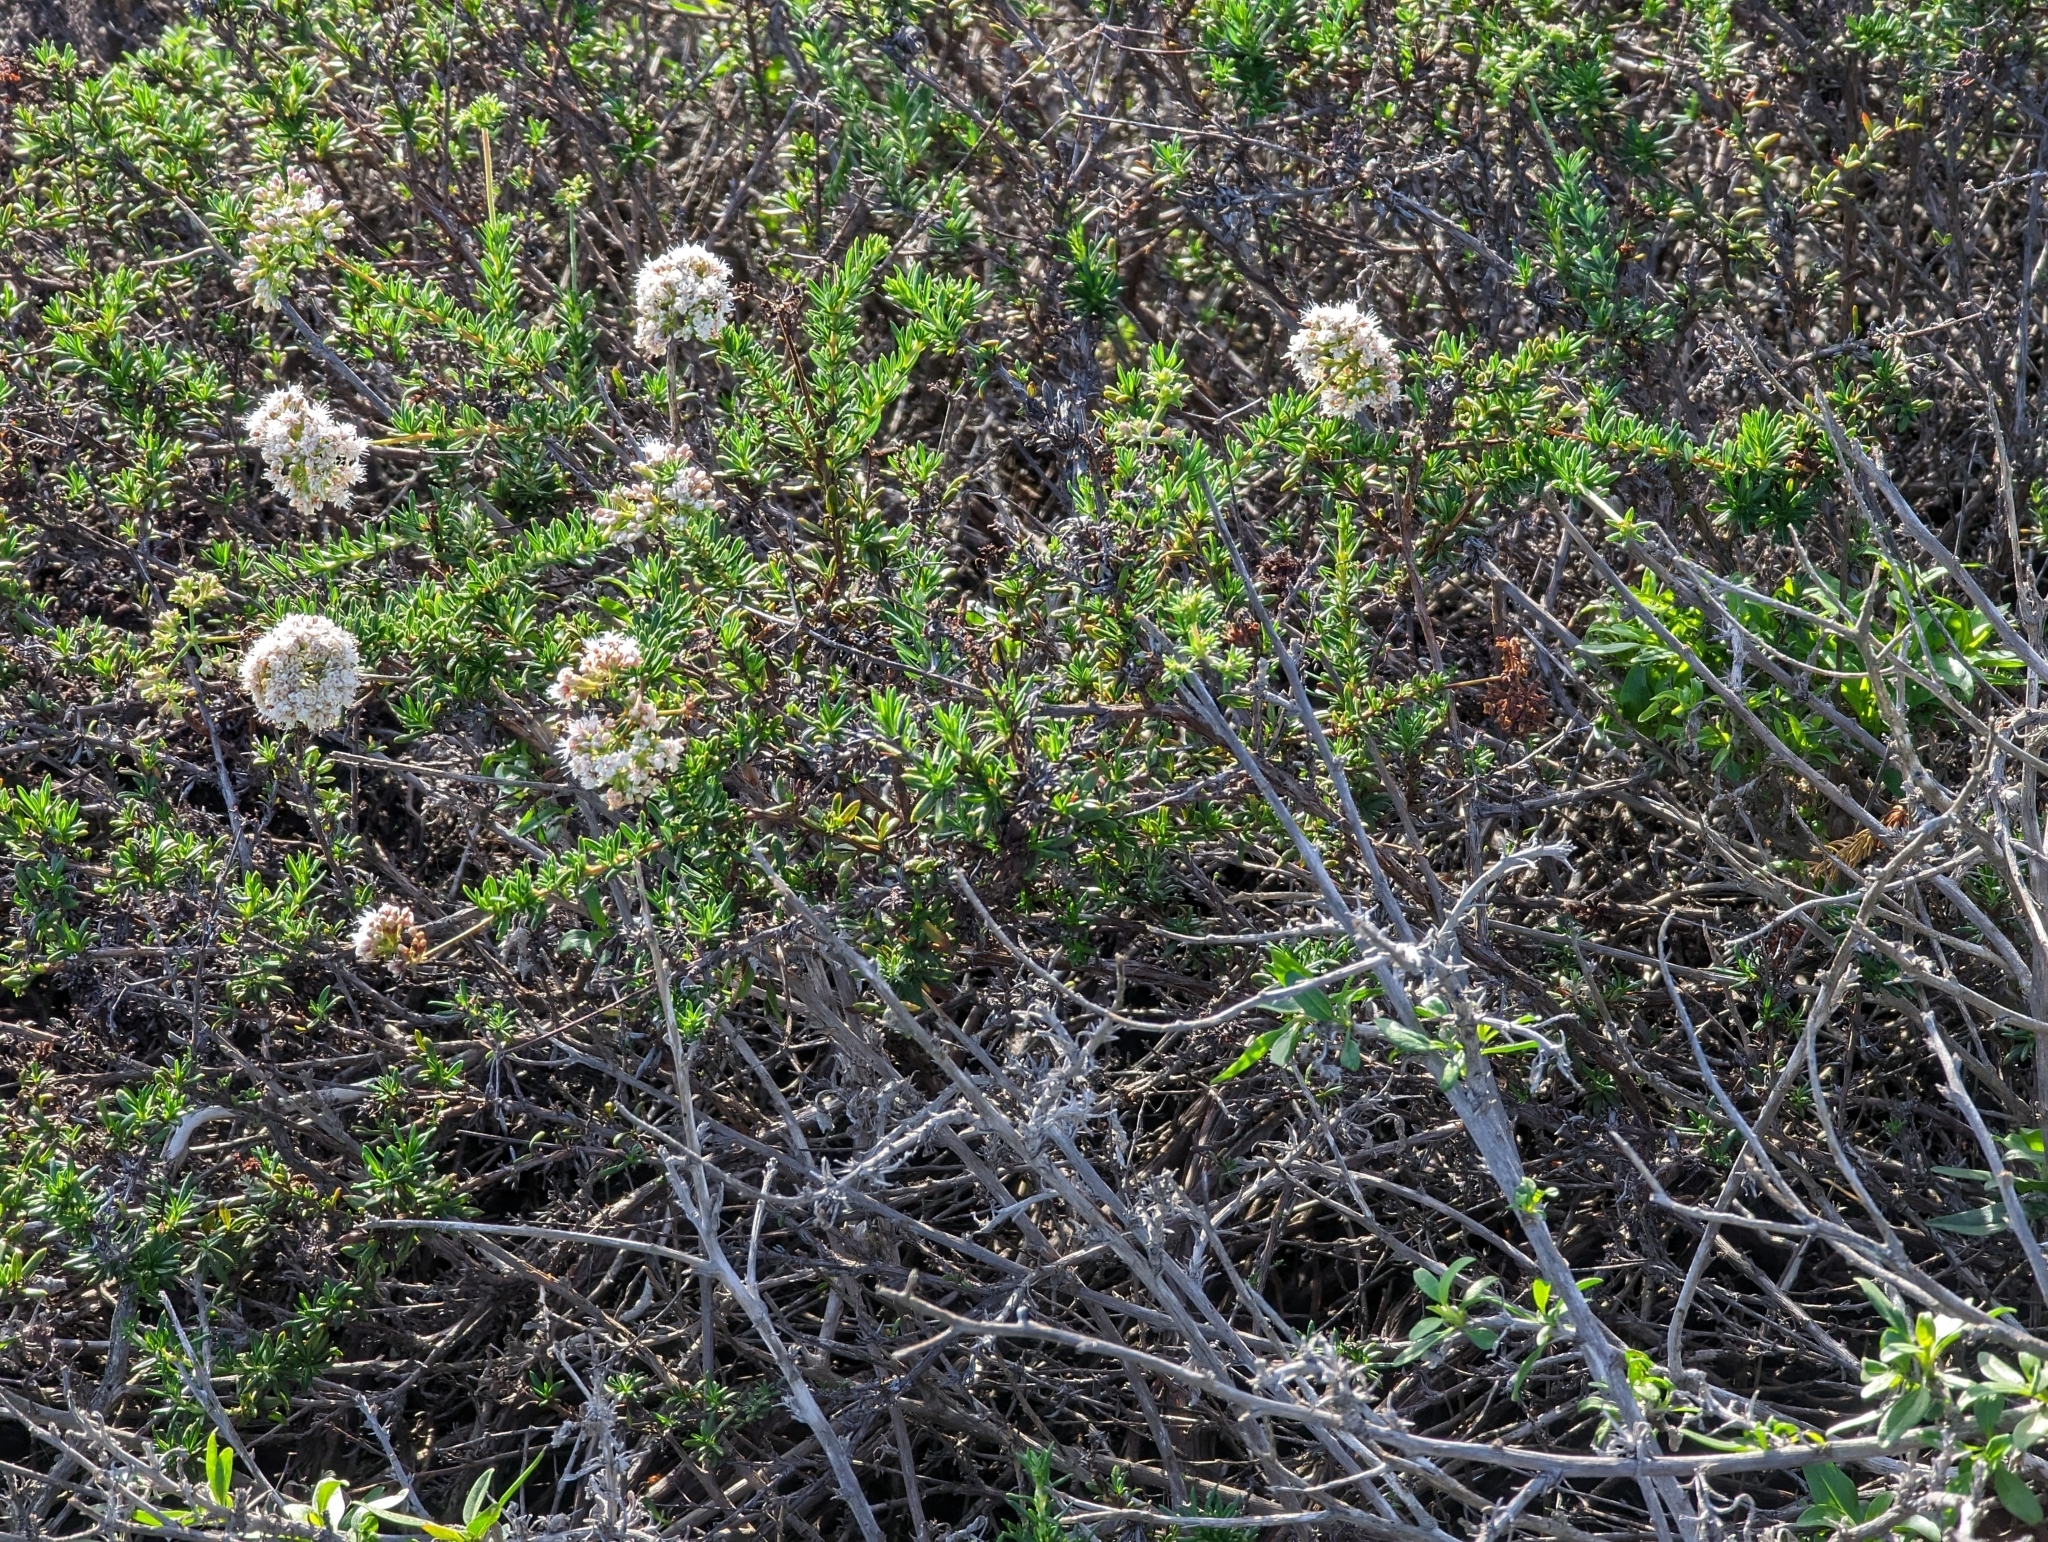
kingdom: Plantae
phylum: Tracheophyta
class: Magnoliopsida
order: Caryophyllales
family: Polygonaceae
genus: Eriogonum
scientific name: Eriogonum fasciculatum
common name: California wild buckwheat
